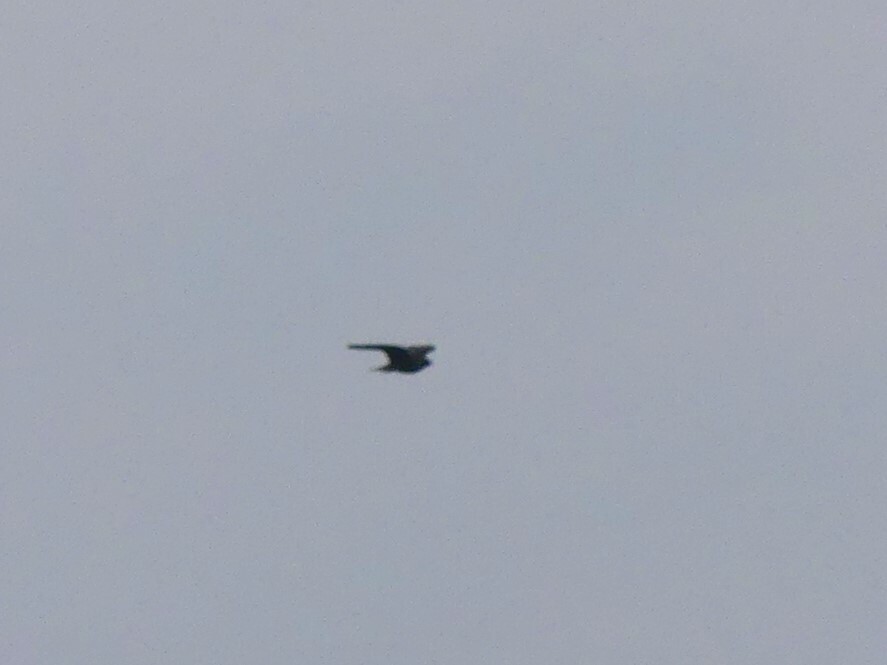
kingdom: Animalia
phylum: Chordata
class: Aves
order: Falconiformes
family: Falconidae
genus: Falco
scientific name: Falco peregrinus
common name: Peregrine falcon
